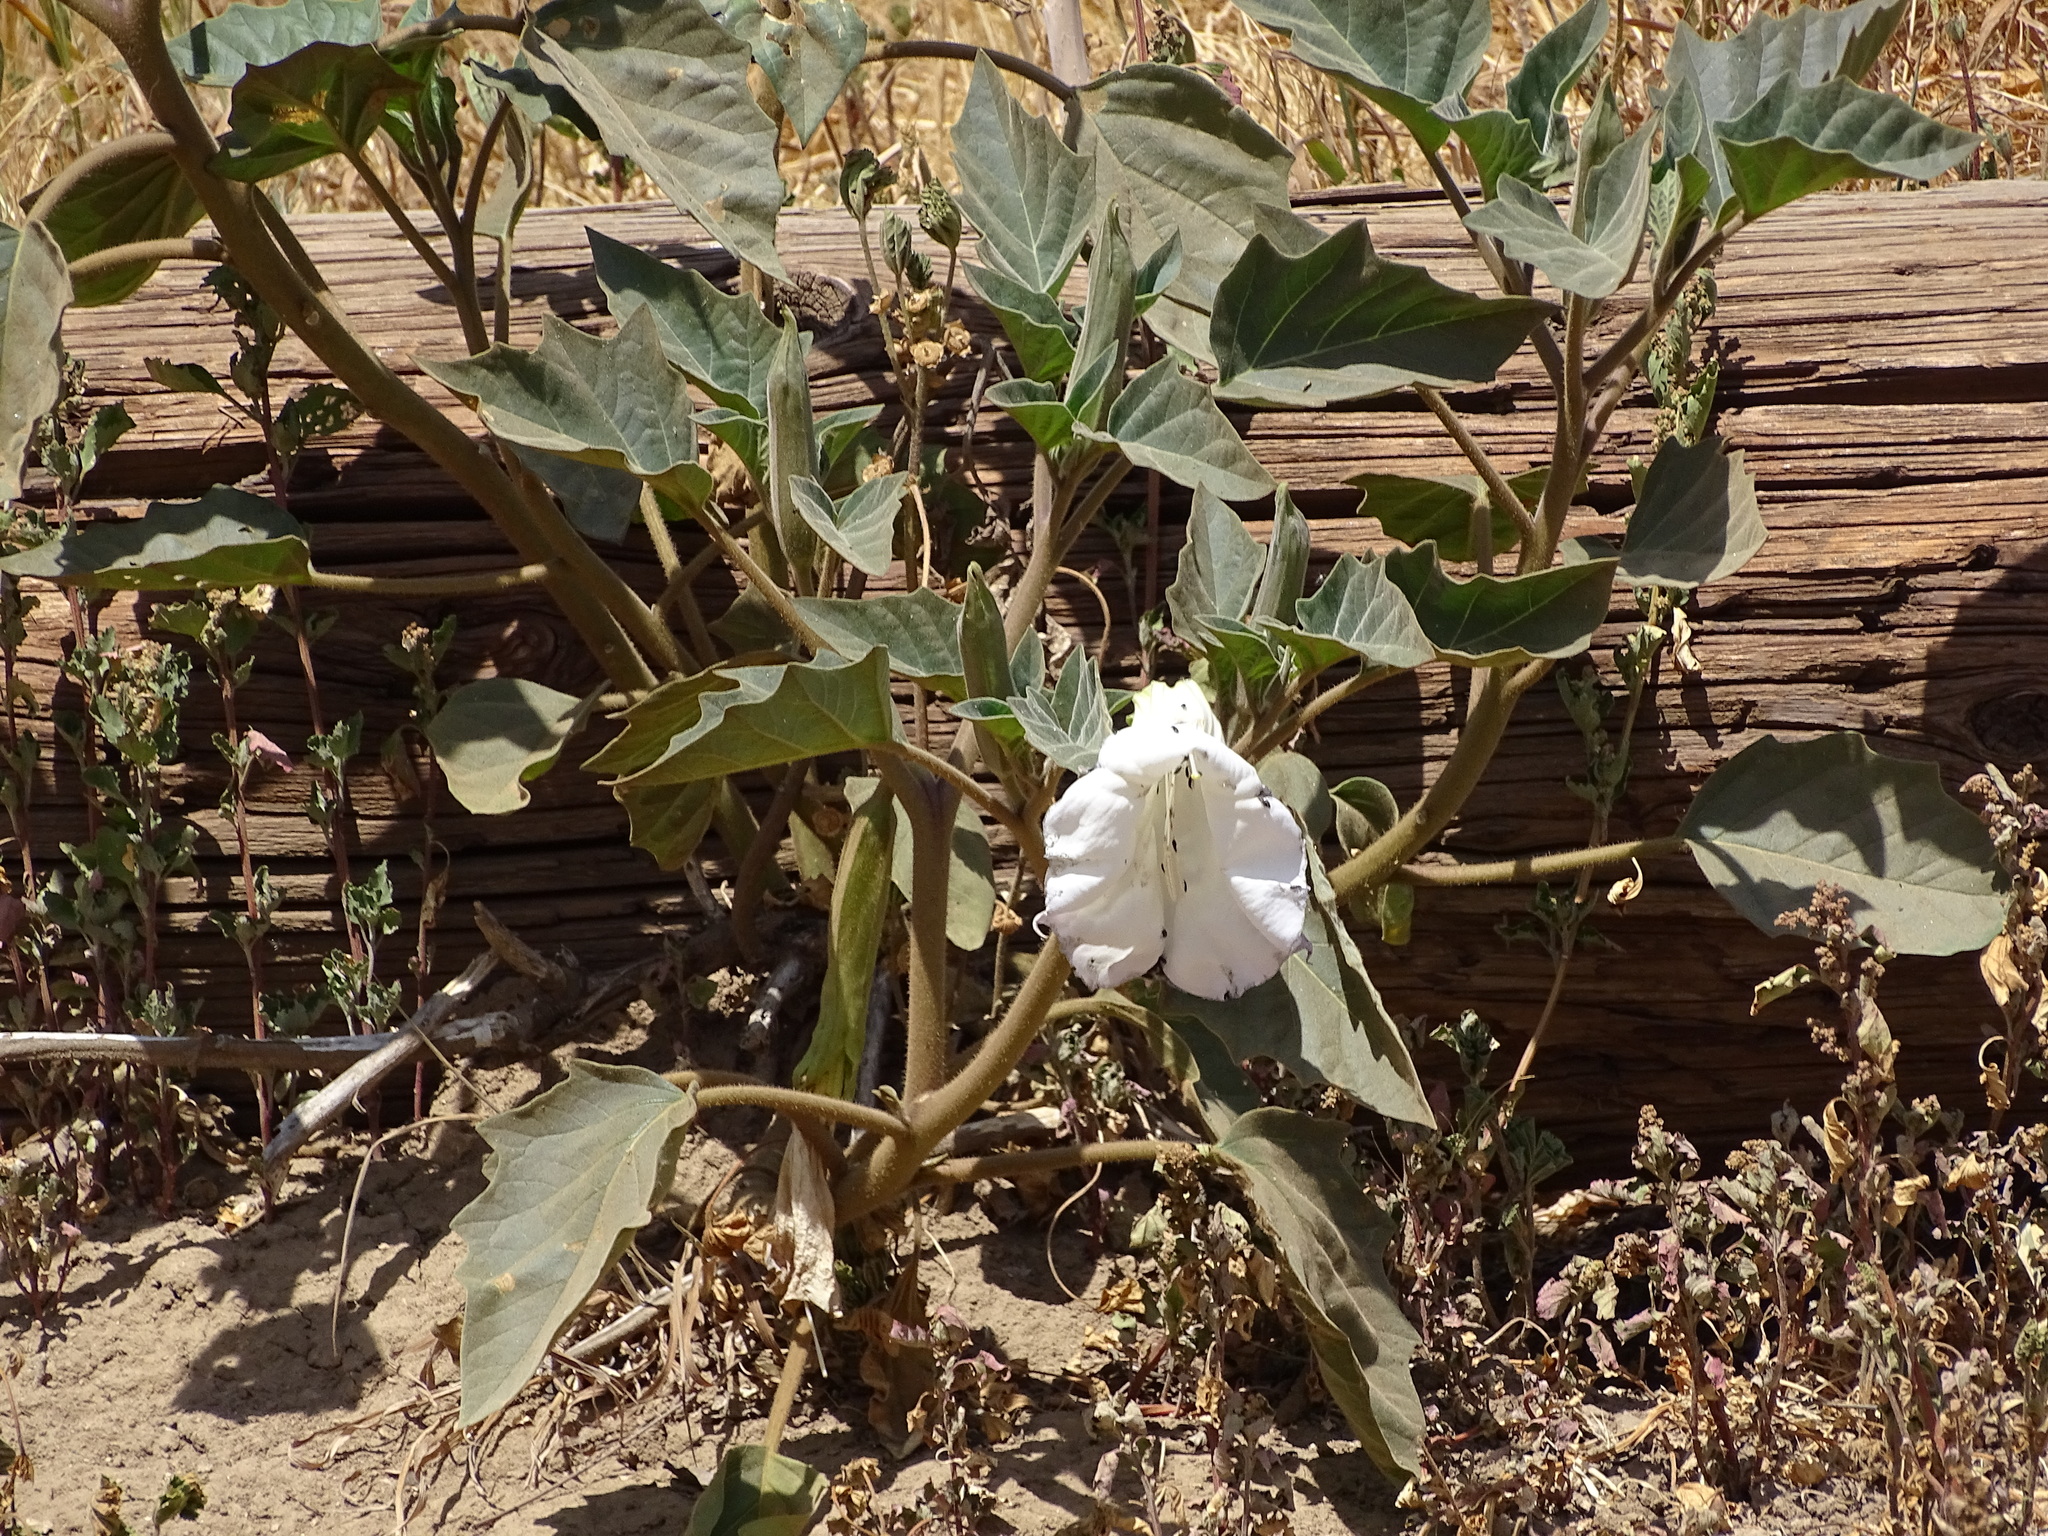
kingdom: Plantae
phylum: Tracheophyta
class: Magnoliopsida
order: Solanales
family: Solanaceae
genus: Datura
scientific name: Datura wrightii
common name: Sacred thorn-apple
